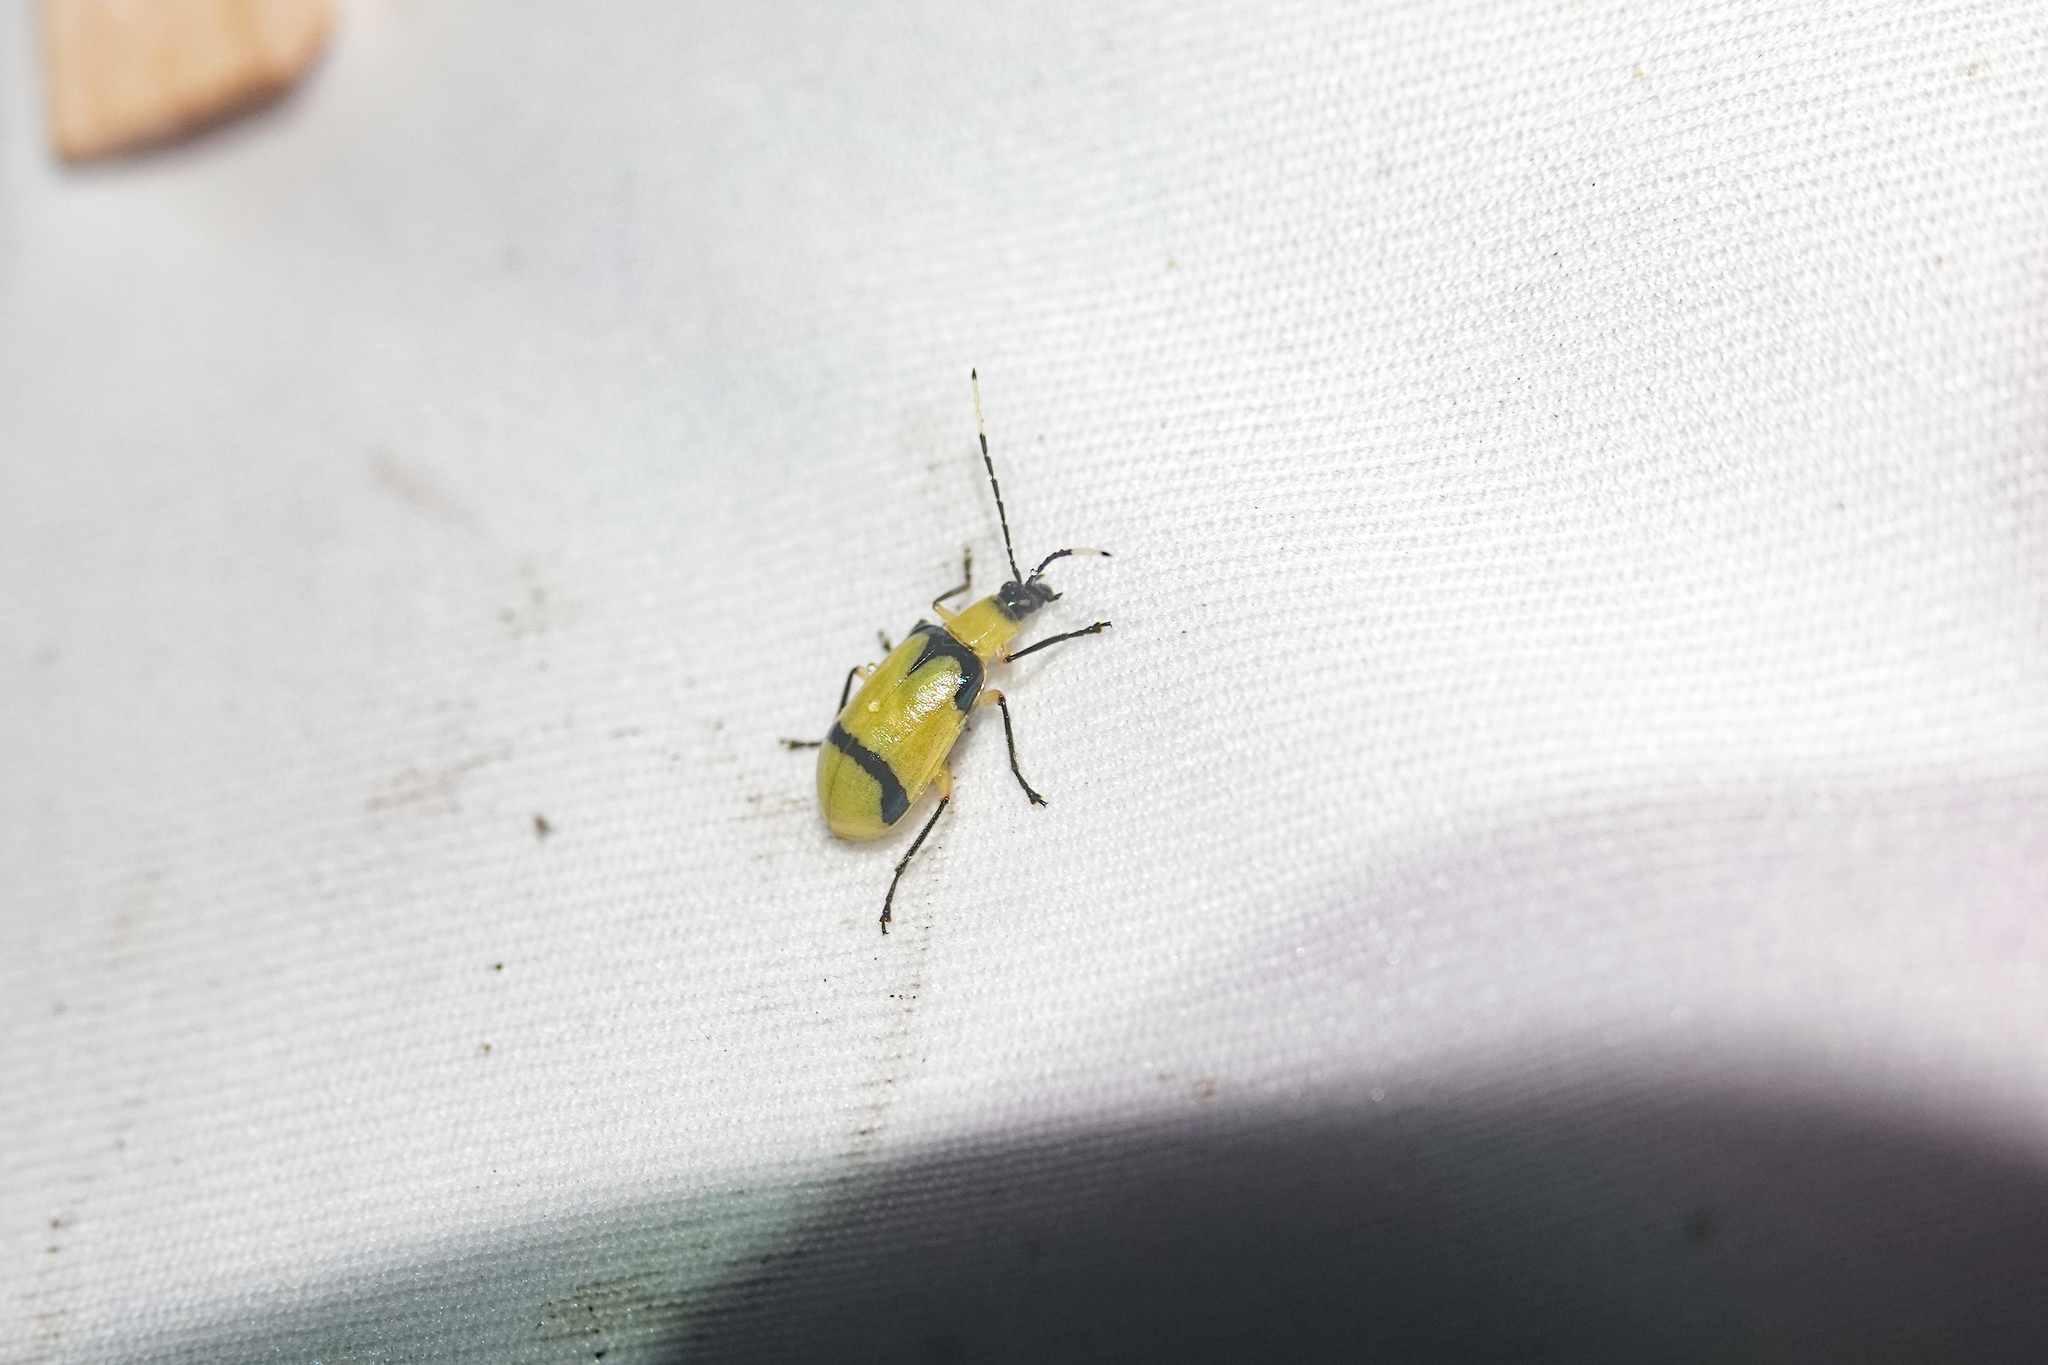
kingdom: Animalia
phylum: Arthropoda
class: Insecta
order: Coleoptera
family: Chrysomelidae
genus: Diabrotica
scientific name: Diabrotica
